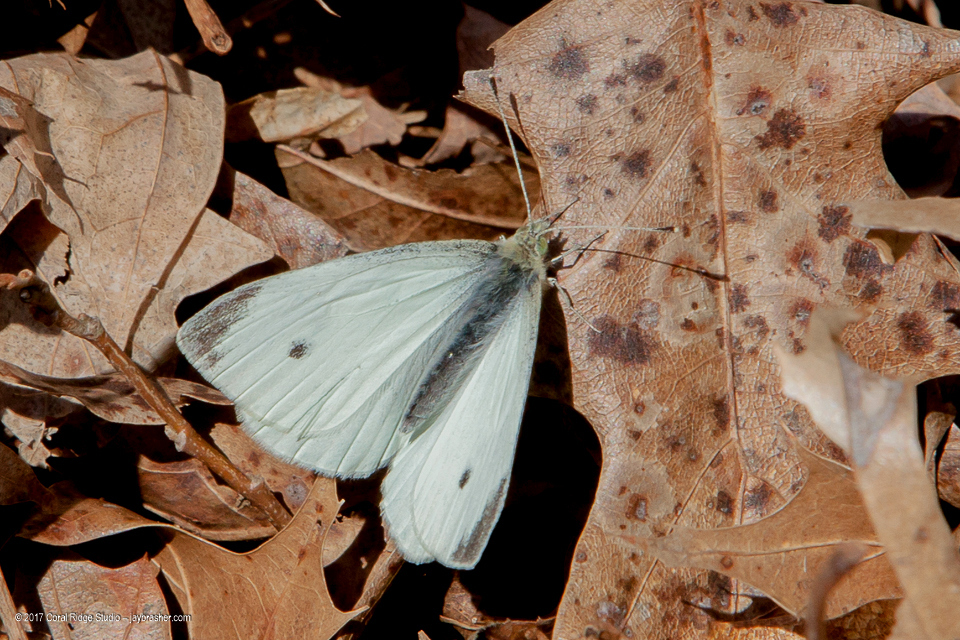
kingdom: Animalia
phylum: Arthropoda
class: Insecta
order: Lepidoptera
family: Pieridae
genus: Pieris
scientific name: Pieris rapae
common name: Small white
